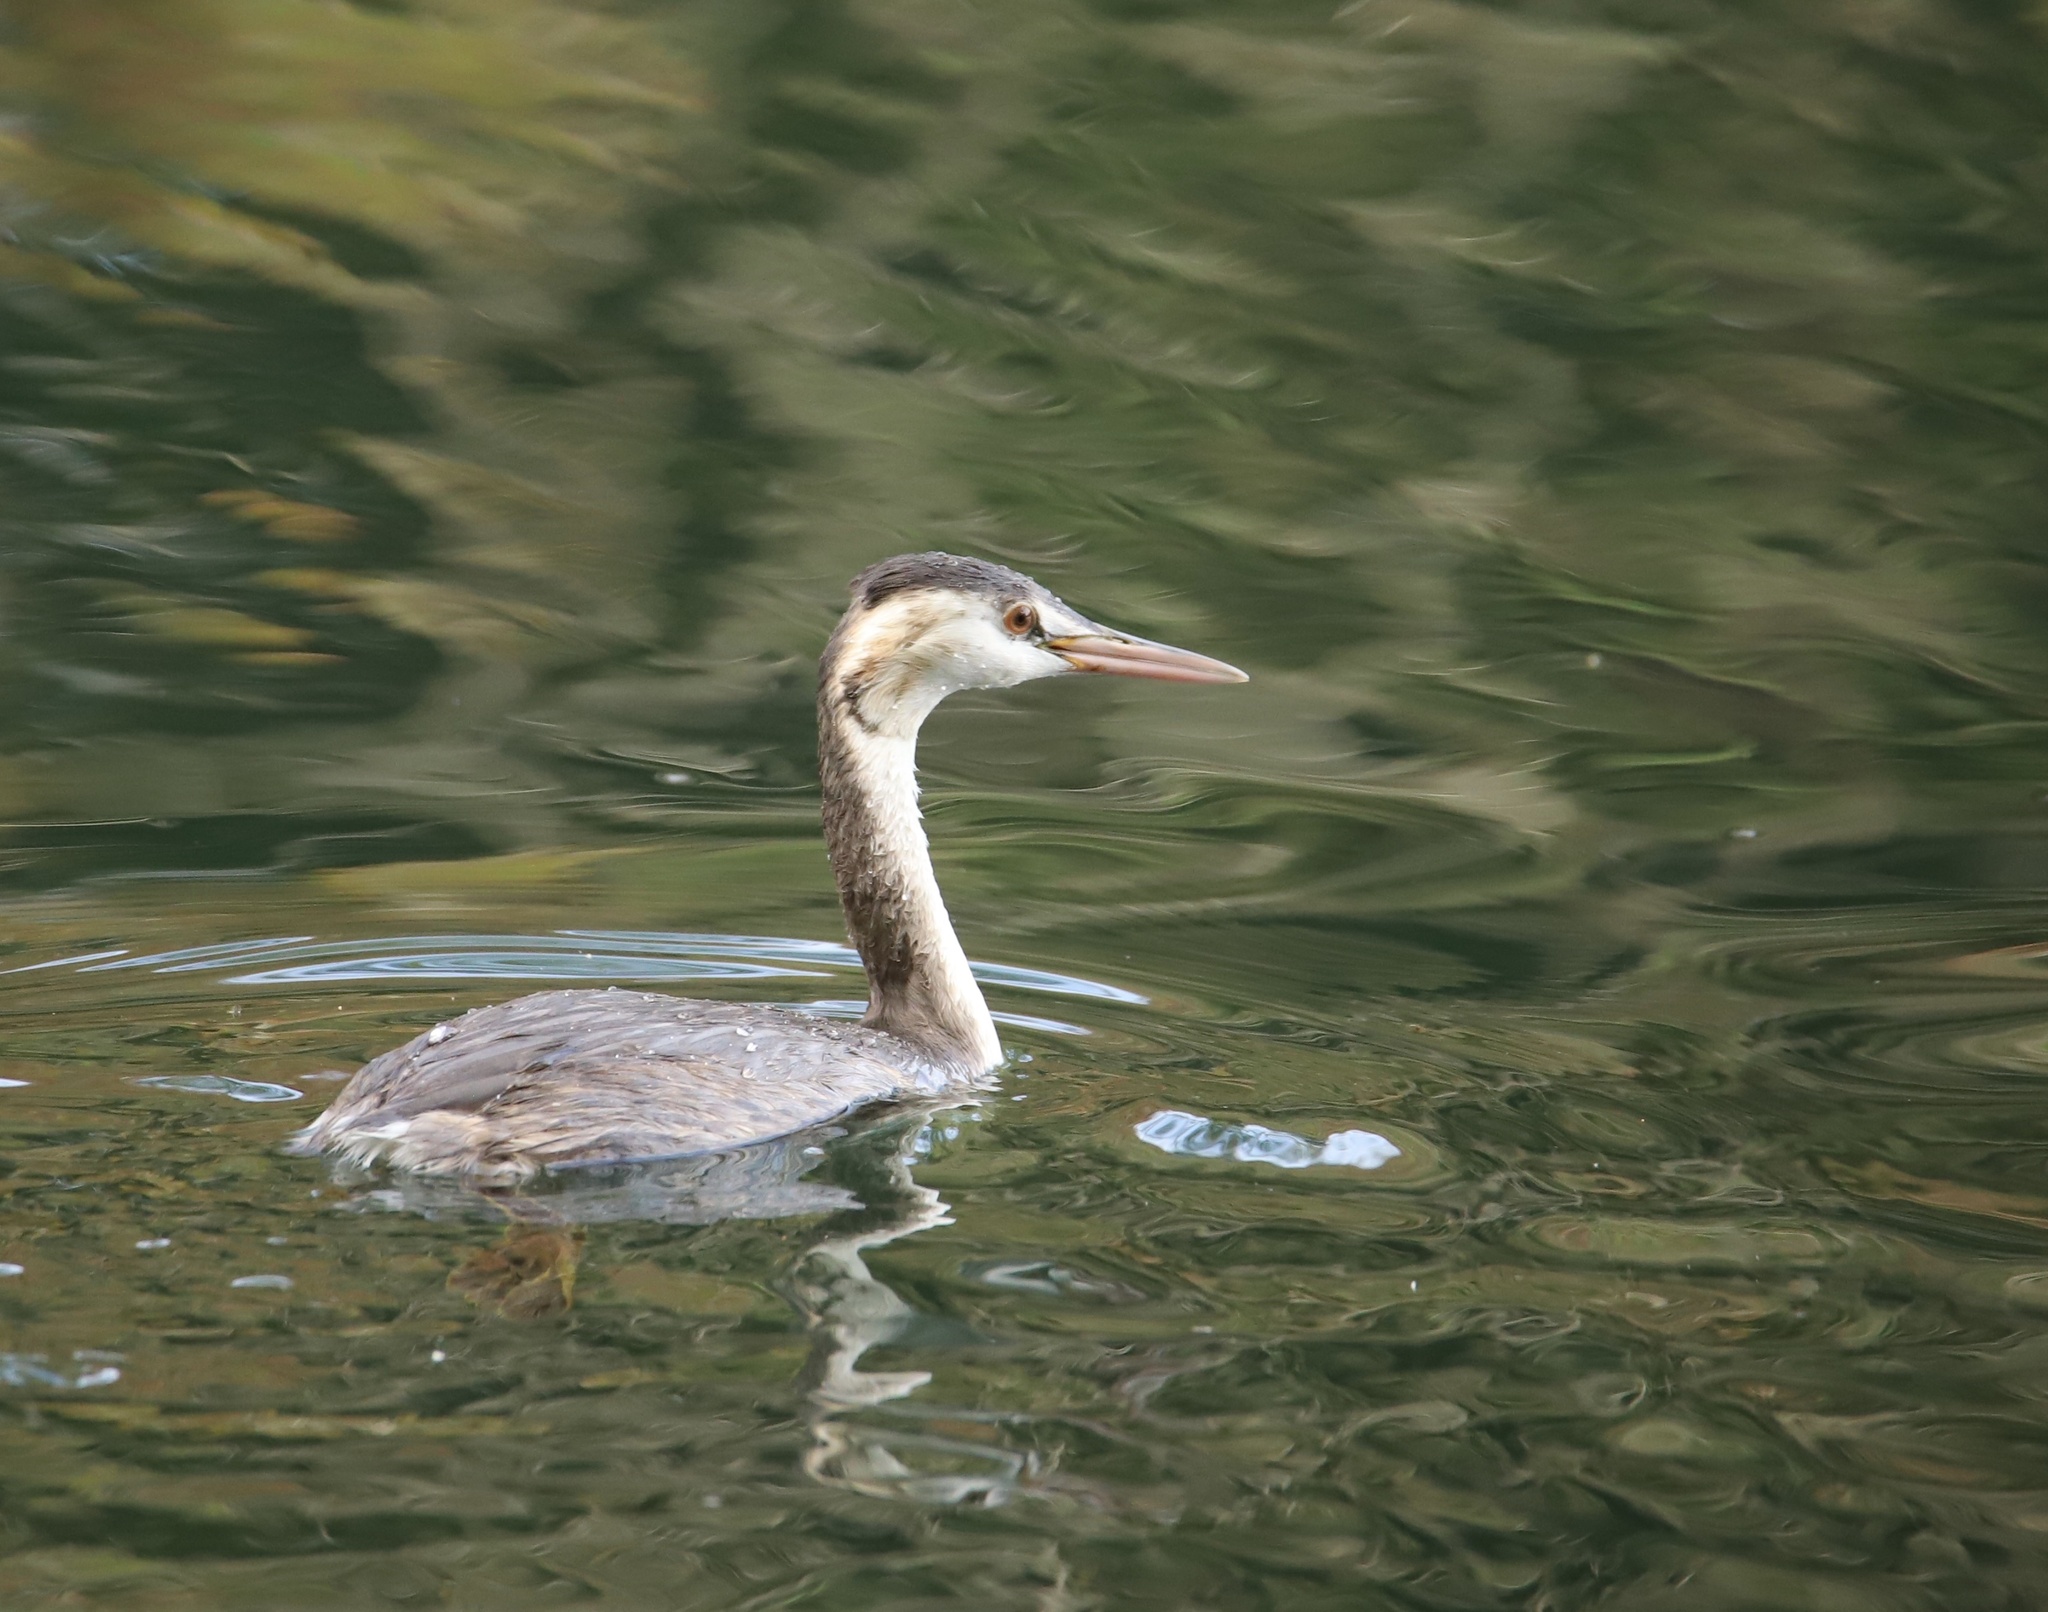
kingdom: Animalia
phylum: Chordata
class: Aves
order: Podicipediformes
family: Podicipedidae
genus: Podiceps
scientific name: Podiceps cristatus
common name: Great crested grebe
